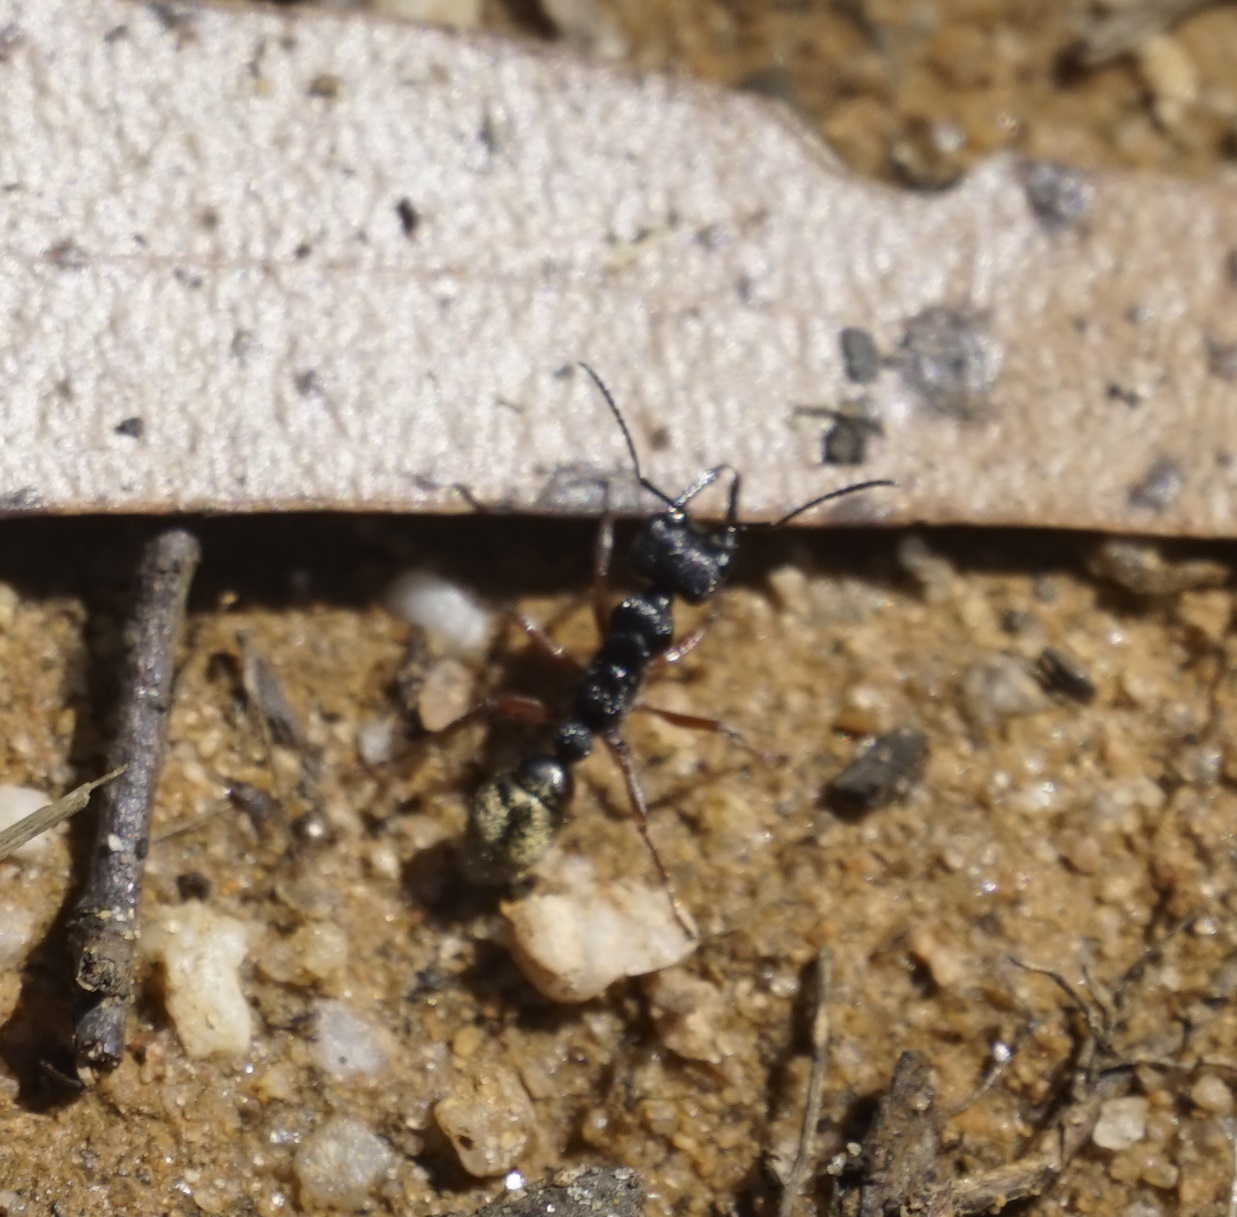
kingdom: Animalia
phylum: Arthropoda
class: Insecta
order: Hymenoptera
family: Formicidae
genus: Myrmecia
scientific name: Myrmecia fulvipes
